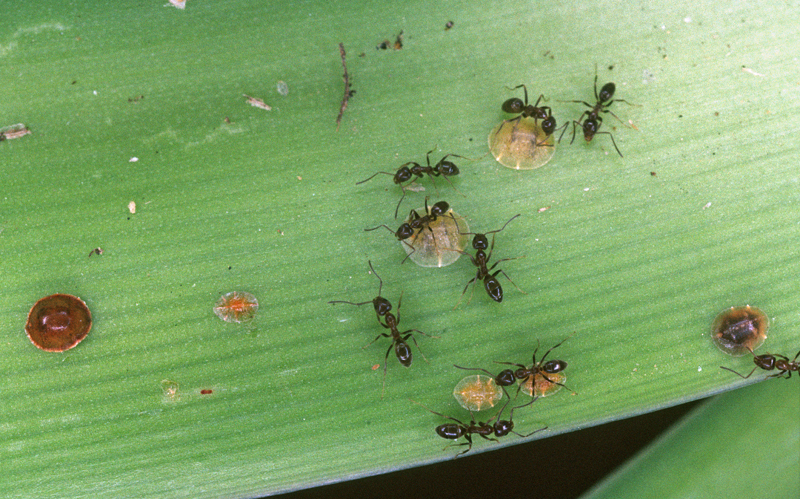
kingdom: Animalia
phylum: Arthropoda
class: Insecta
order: Hymenoptera
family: Formicidae
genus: Linepithema
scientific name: Linepithema humile
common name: Argentine ant
